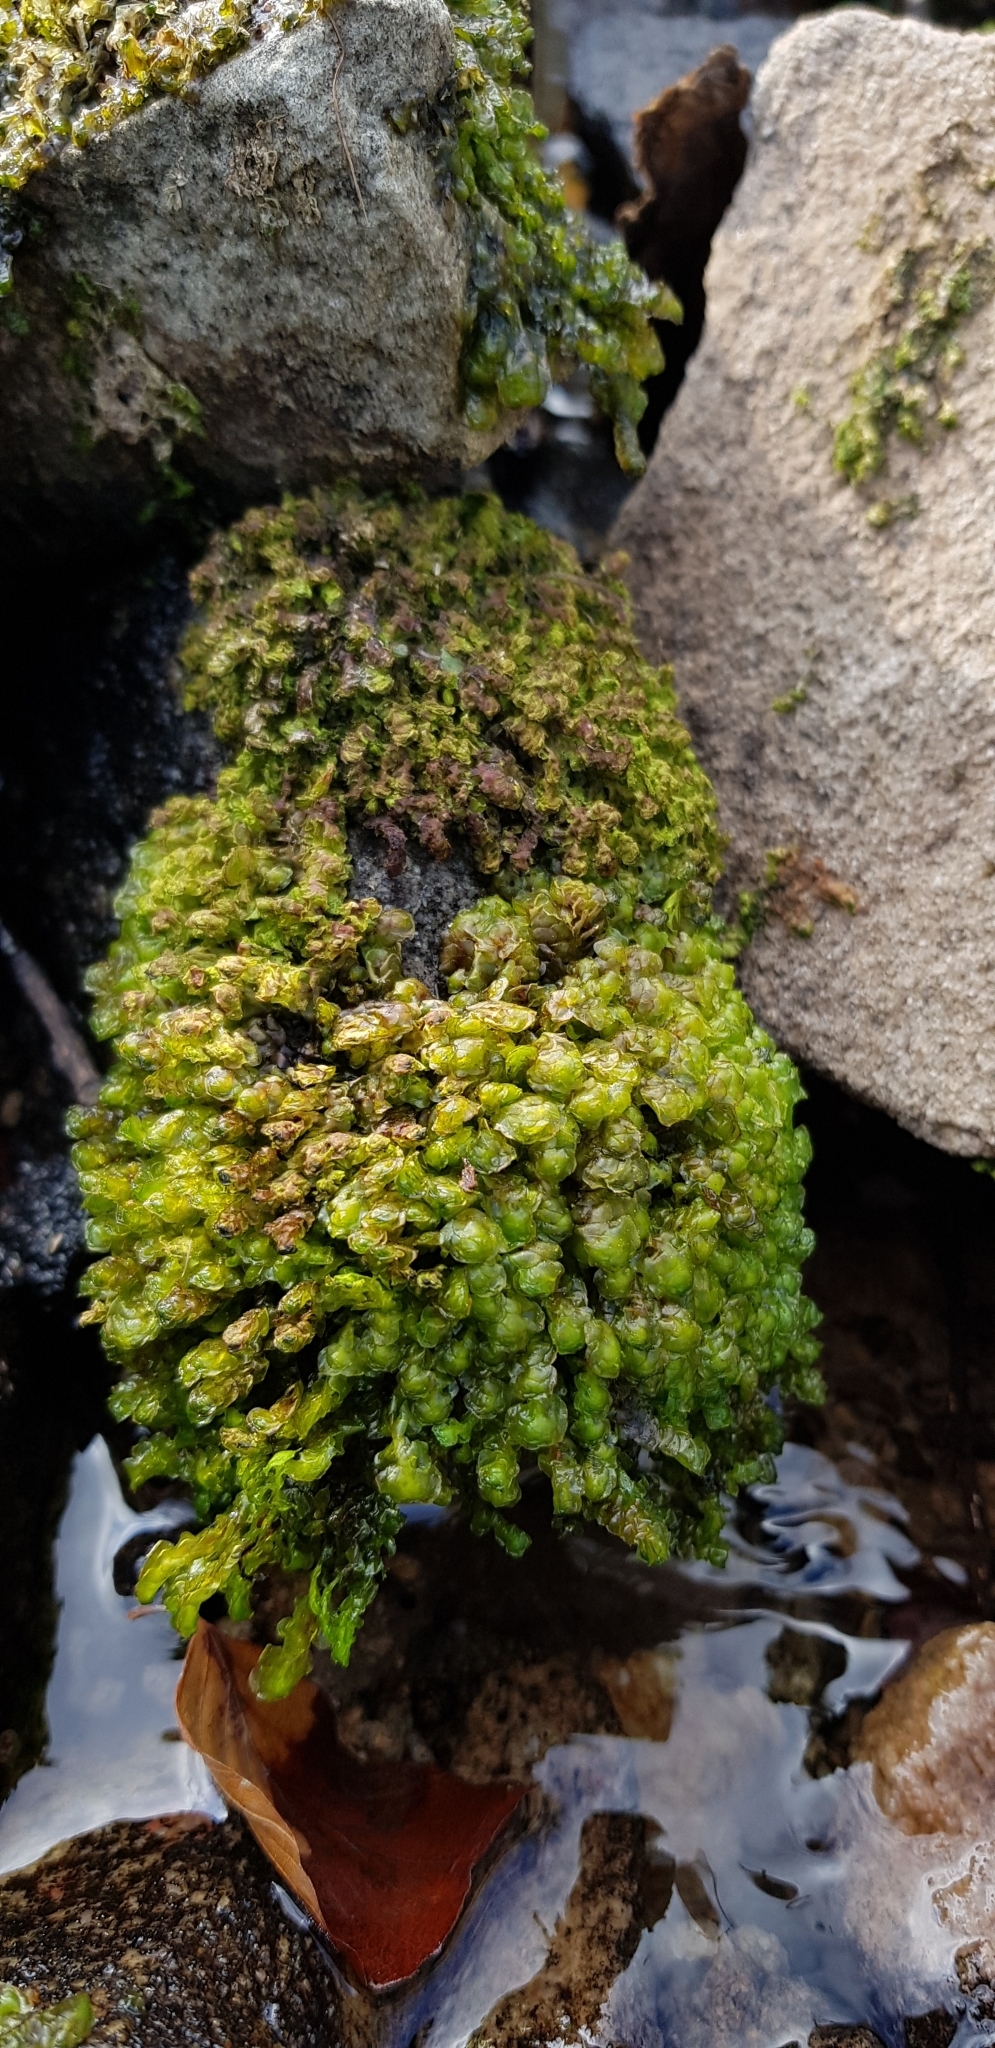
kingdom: Plantae
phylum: Marchantiophyta
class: Jungermanniopsida
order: Jungermanniales
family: Scapaniaceae
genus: Scapania
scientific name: Scapania undulata
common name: Water earwort
